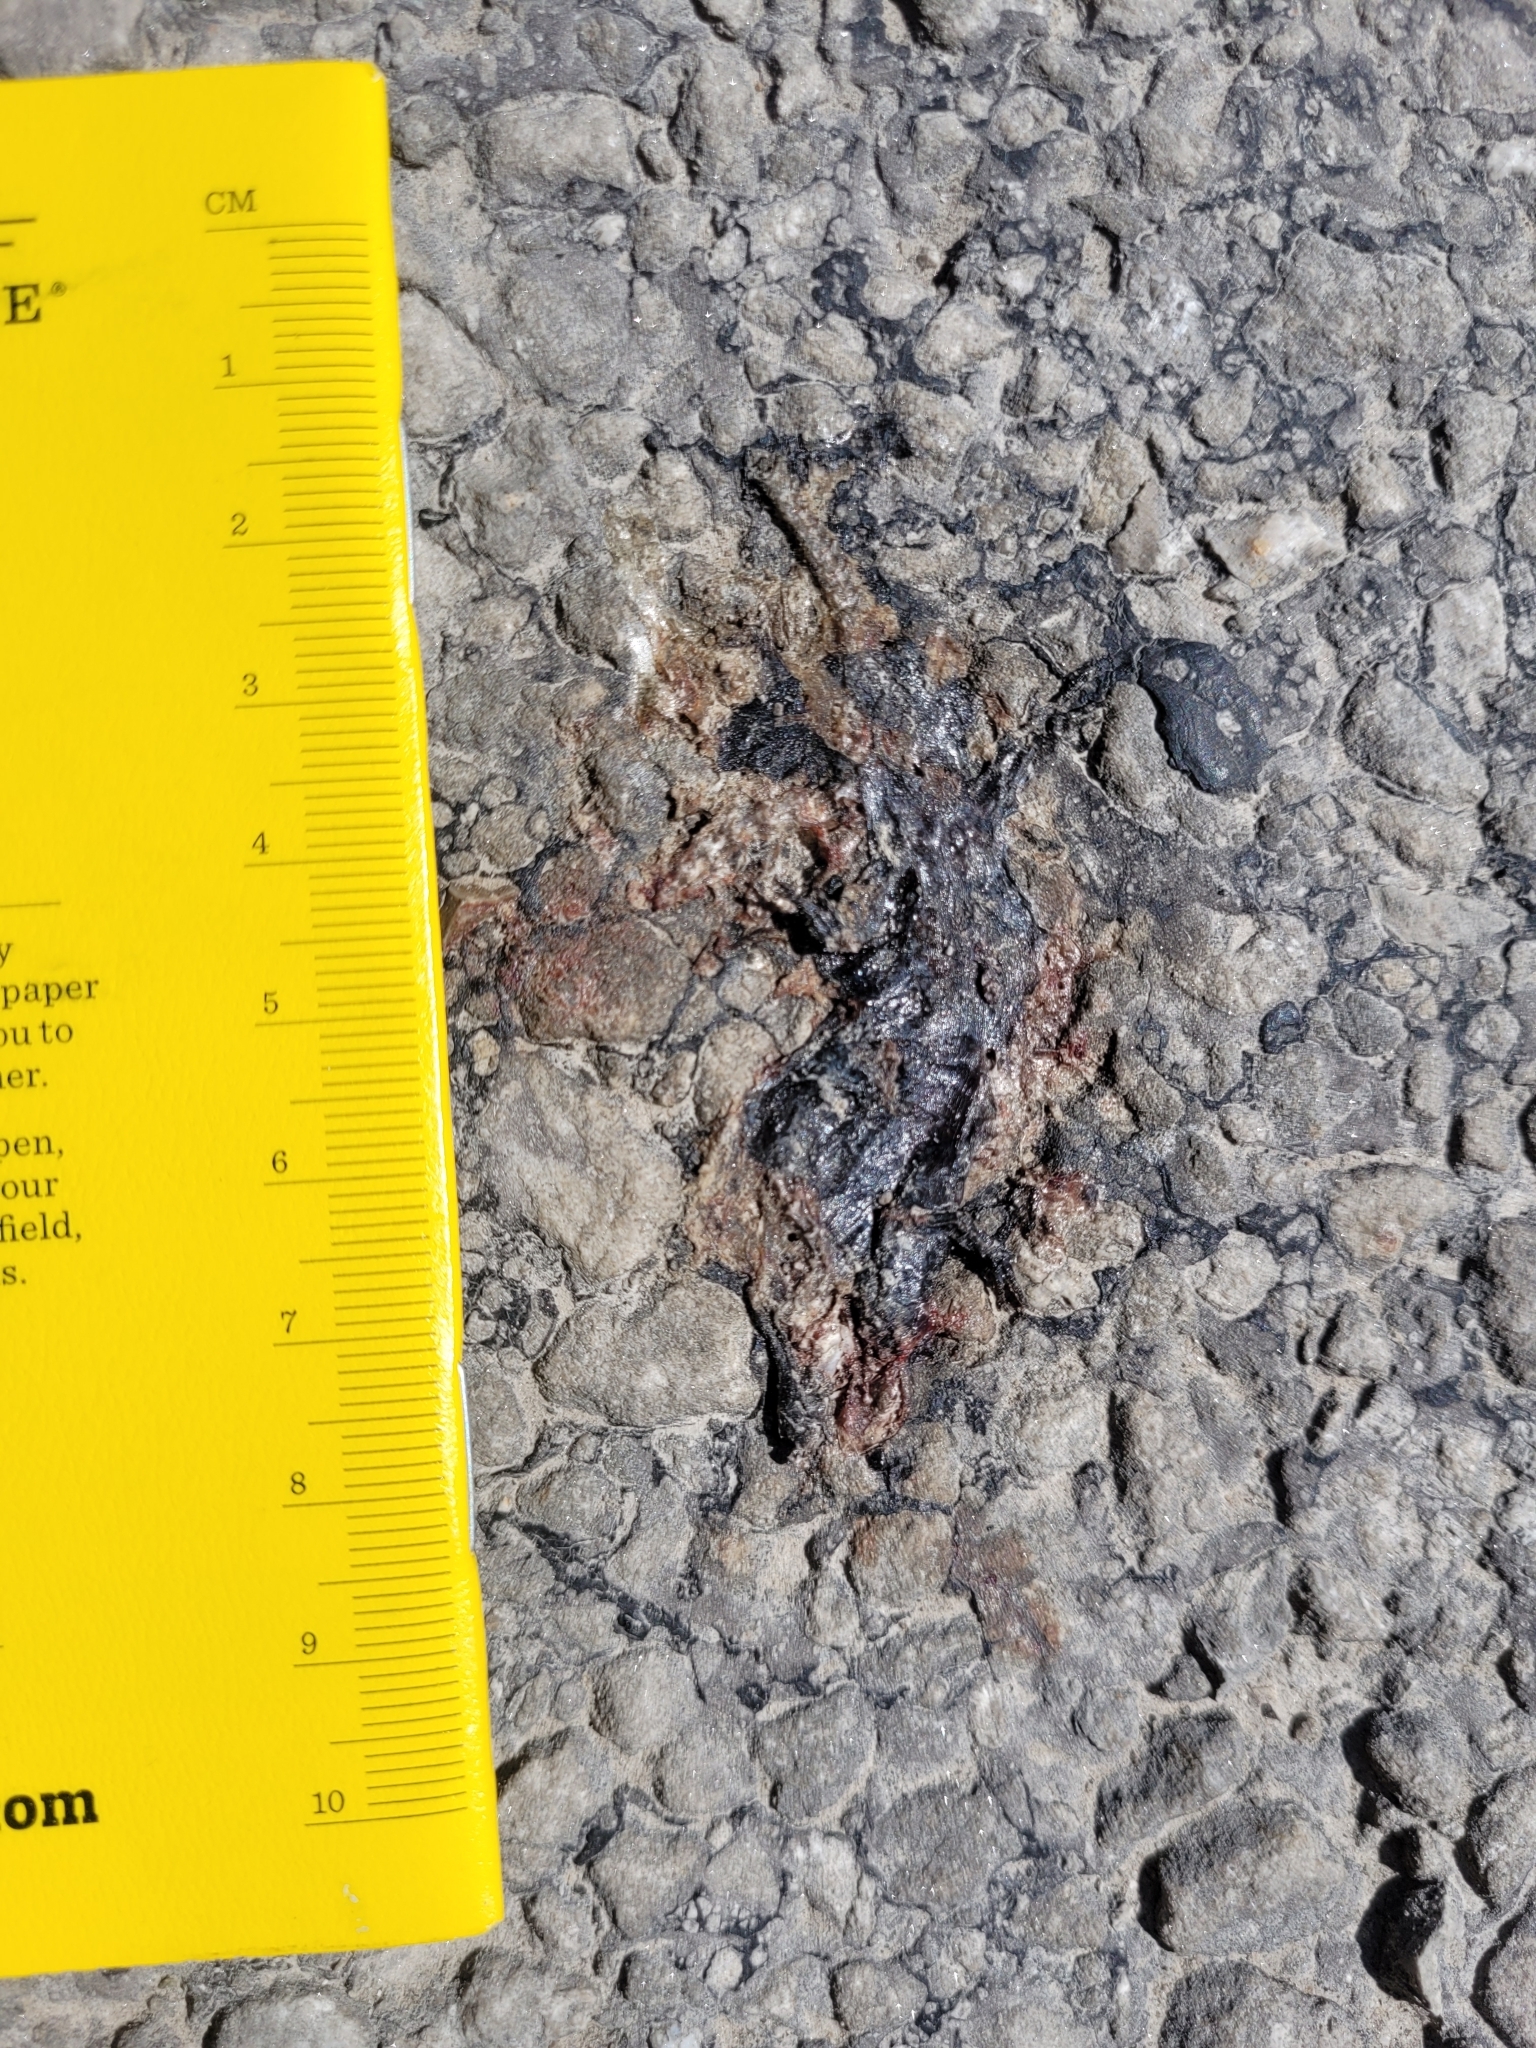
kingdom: Animalia
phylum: Chordata
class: Amphibia
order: Caudata
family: Ambystomatidae
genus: Ambystoma
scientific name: Ambystoma unisexual
